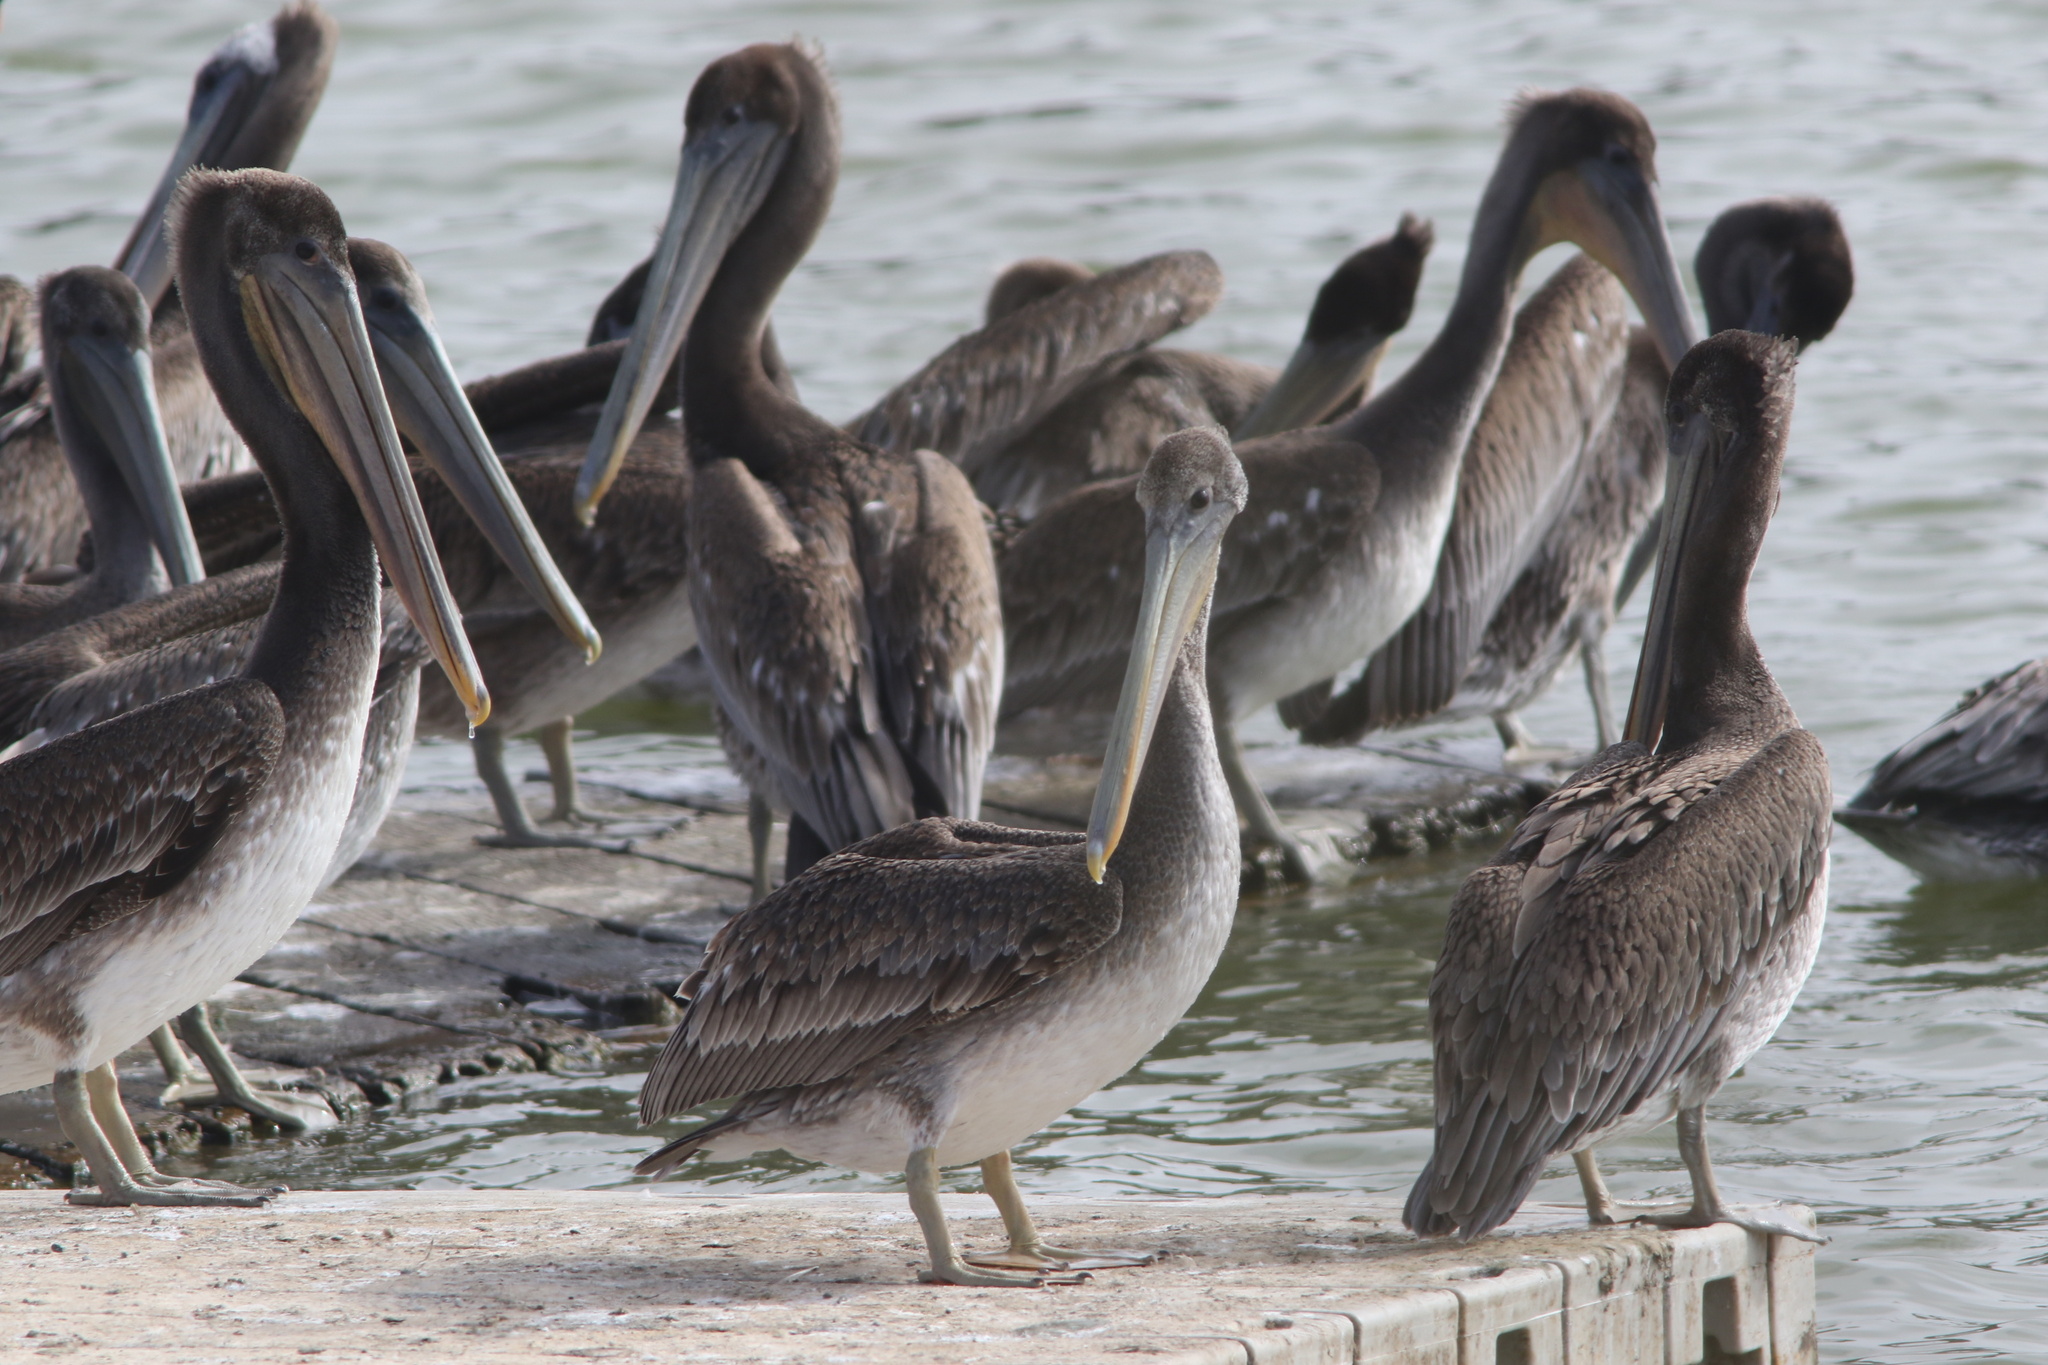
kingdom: Animalia
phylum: Chordata
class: Aves
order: Pelecaniformes
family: Pelecanidae
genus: Pelecanus
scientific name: Pelecanus occidentalis
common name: Brown pelican
